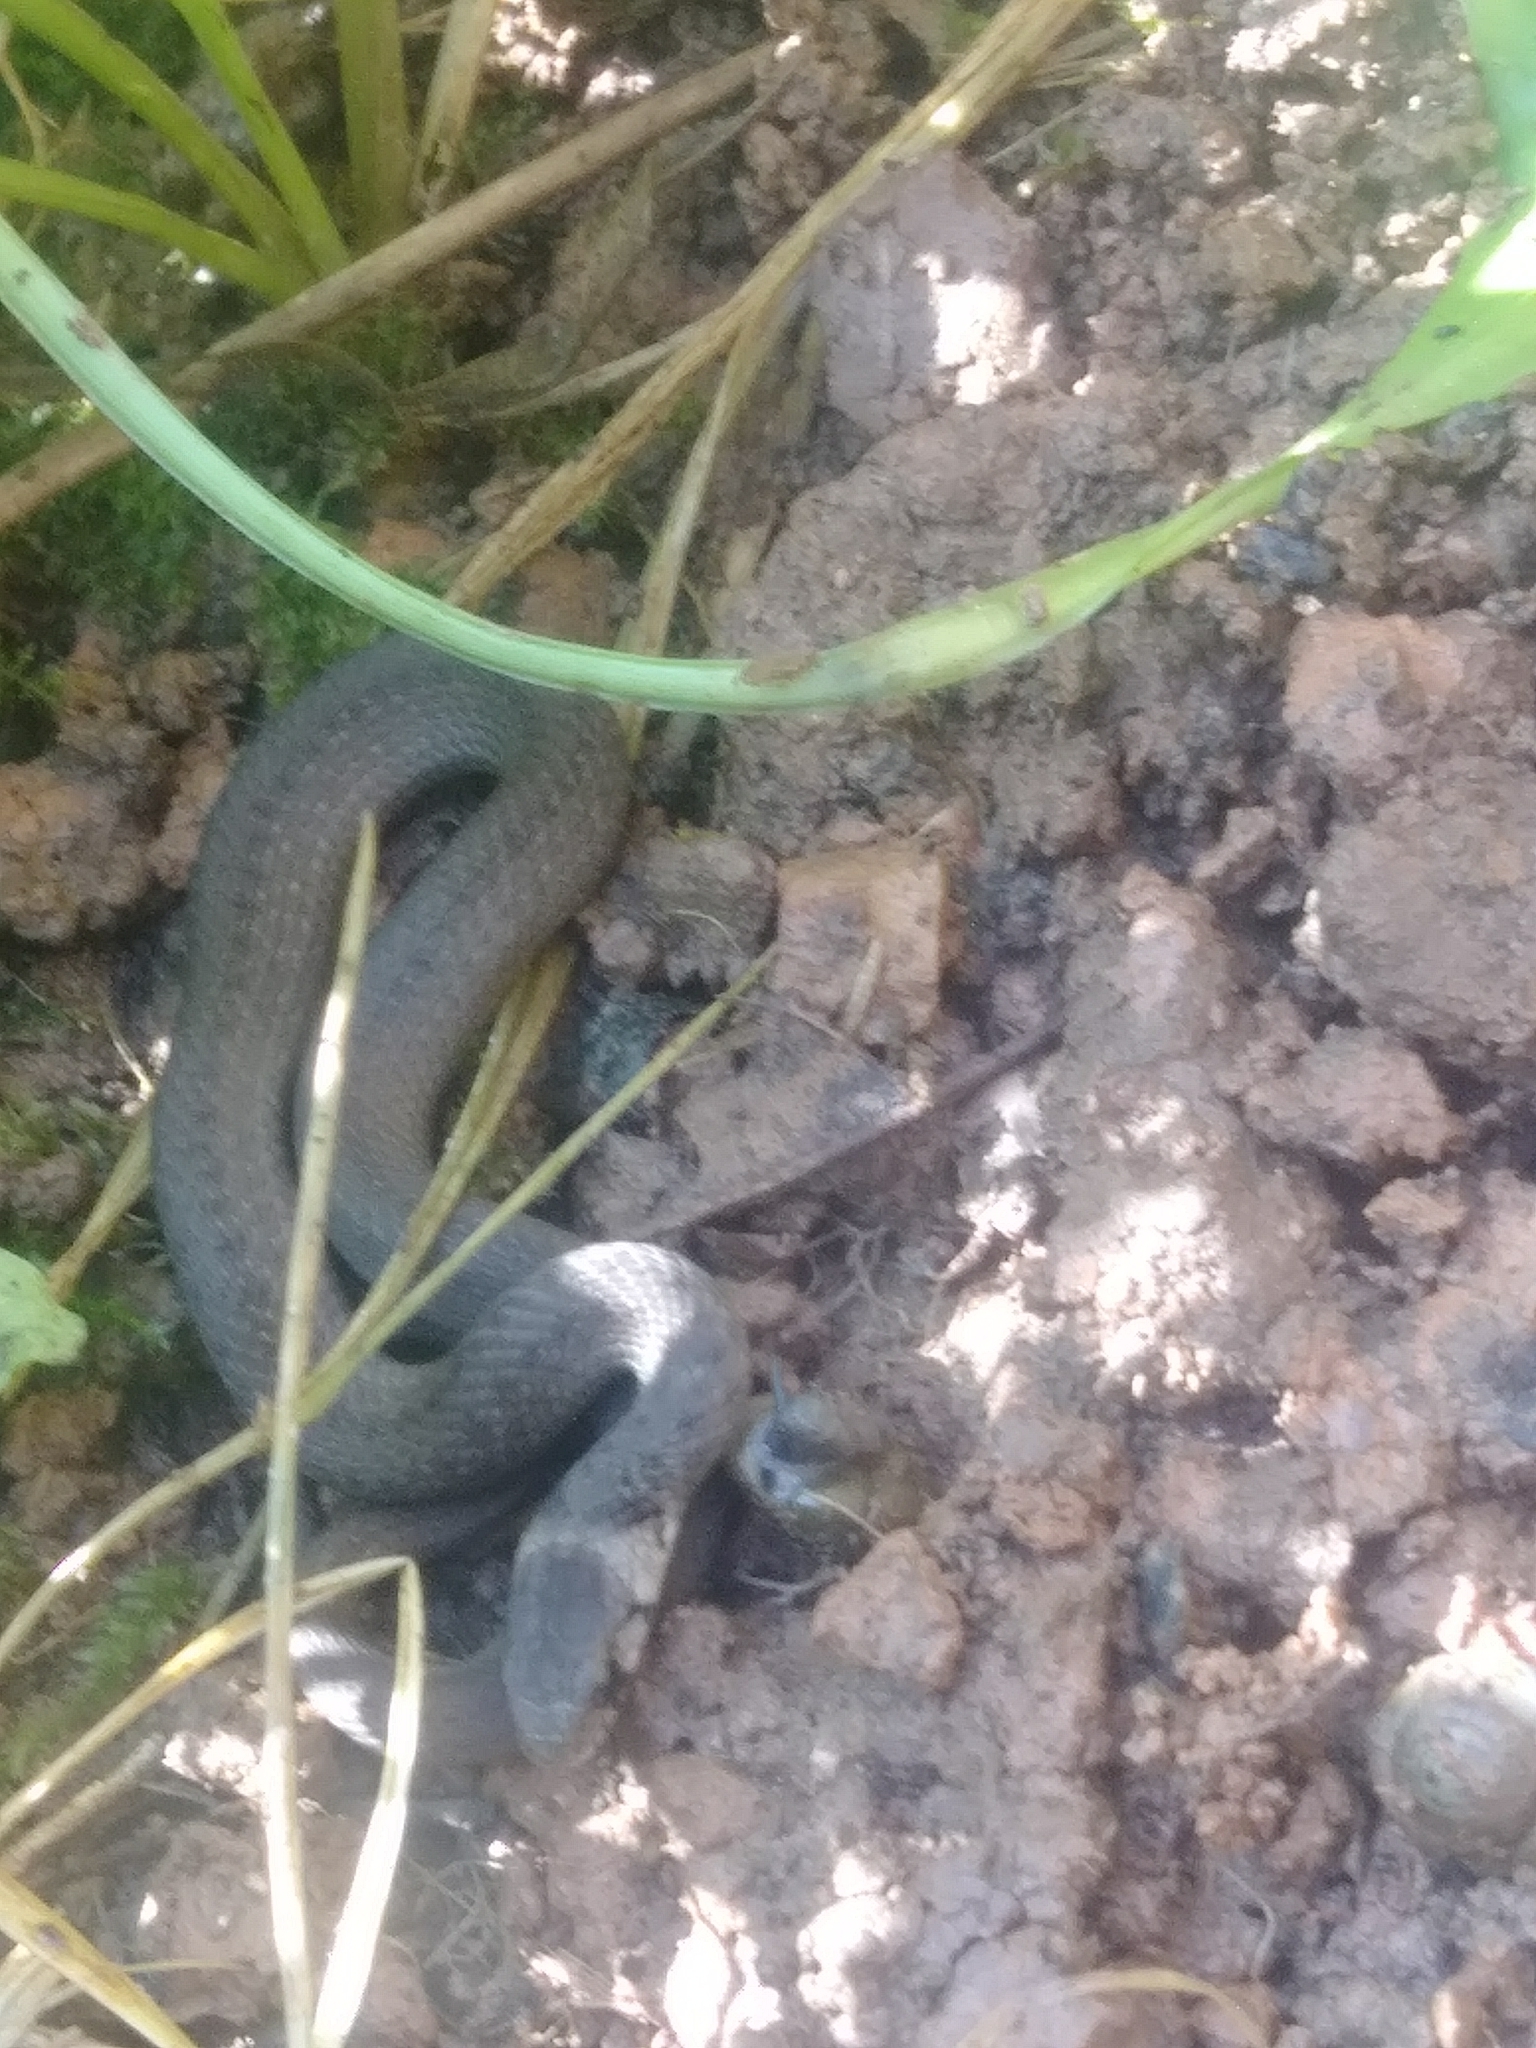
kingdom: Animalia
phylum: Chordata
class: Squamata
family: Colubridae
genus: Storeria
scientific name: Storeria dekayi
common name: (dekay’s) brown snake
